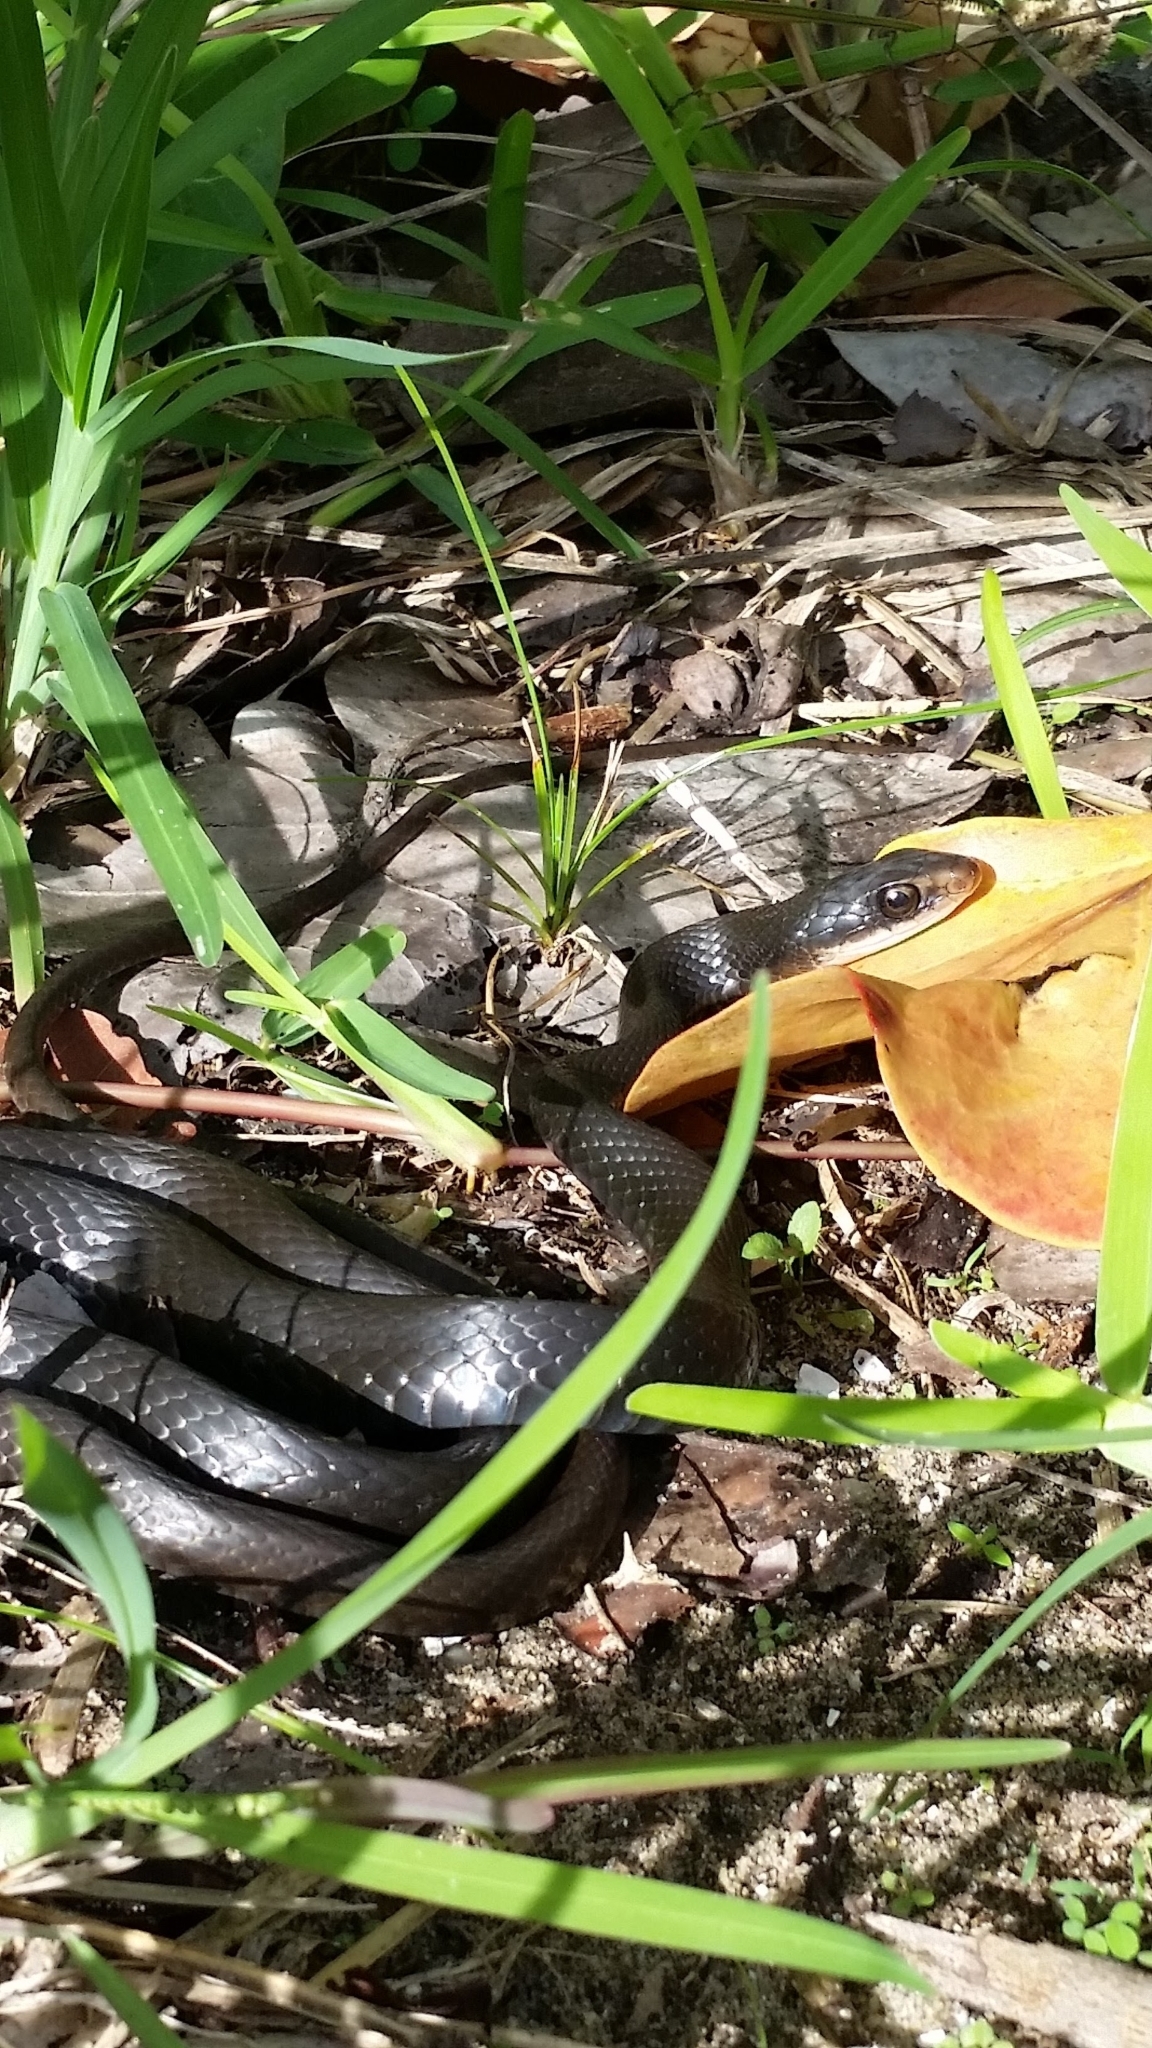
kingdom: Animalia
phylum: Chordata
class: Squamata
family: Colubridae
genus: Coluber
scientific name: Coluber constrictor
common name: Eastern racer
